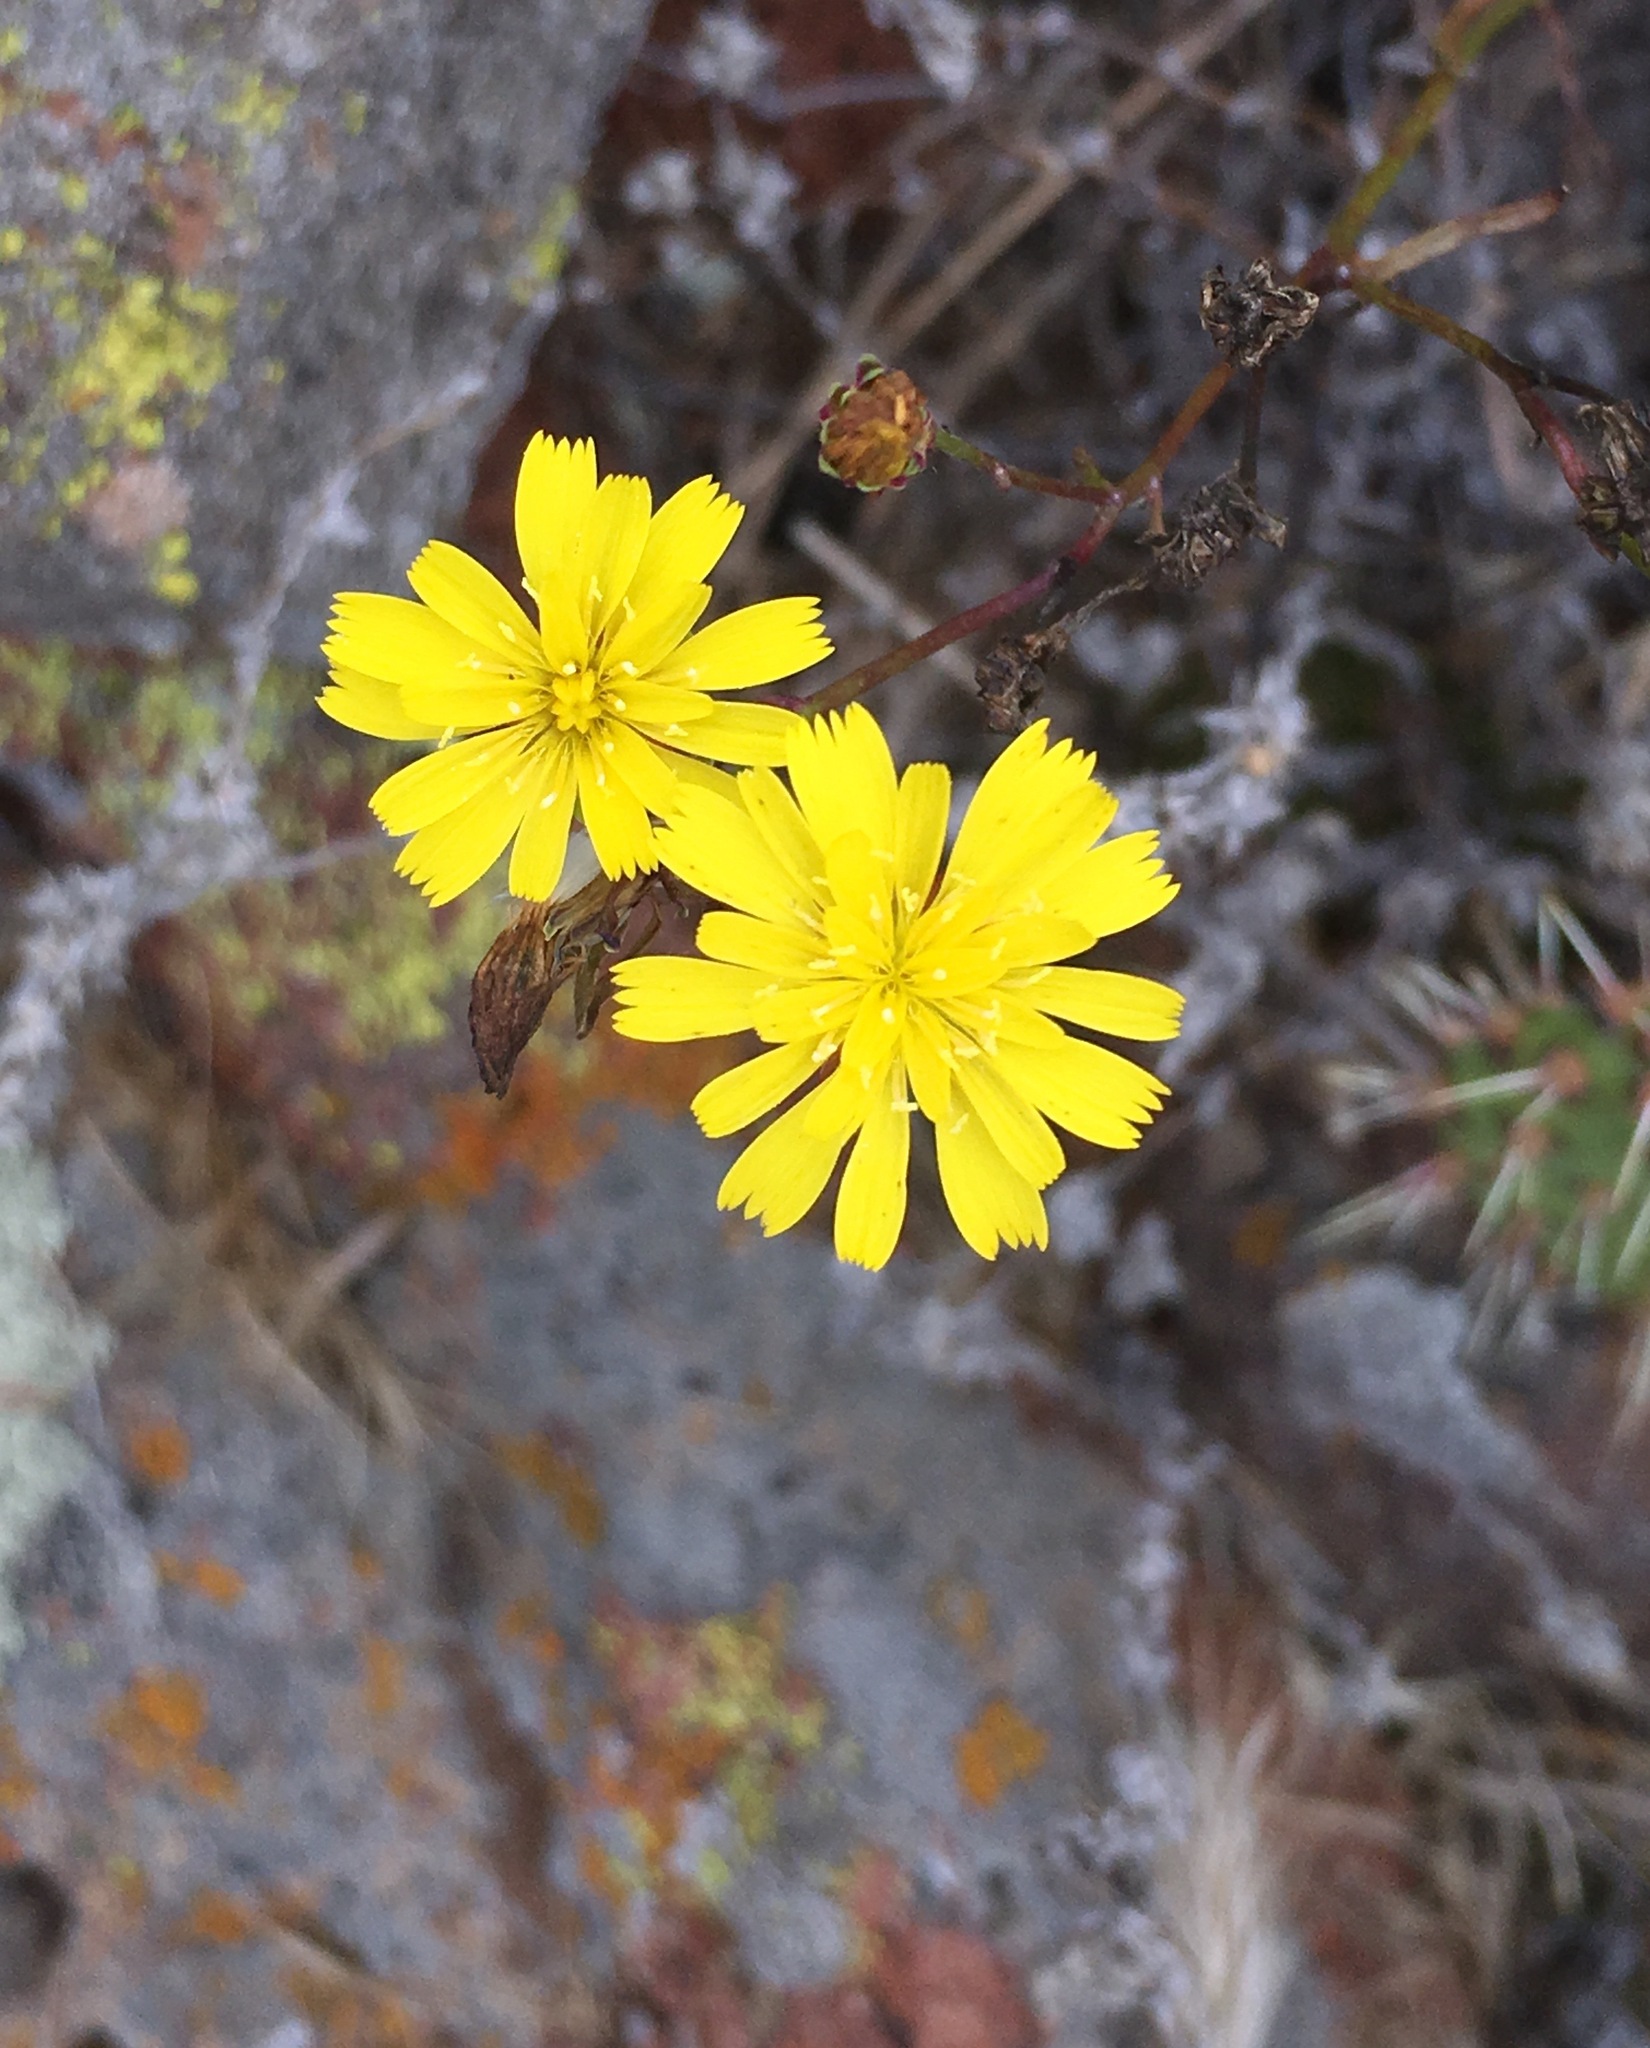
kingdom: Plantae
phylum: Tracheophyta
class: Magnoliopsida
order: Asterales
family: Asteraceae
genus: Malacothrix
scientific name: Malacothrix foliosa
